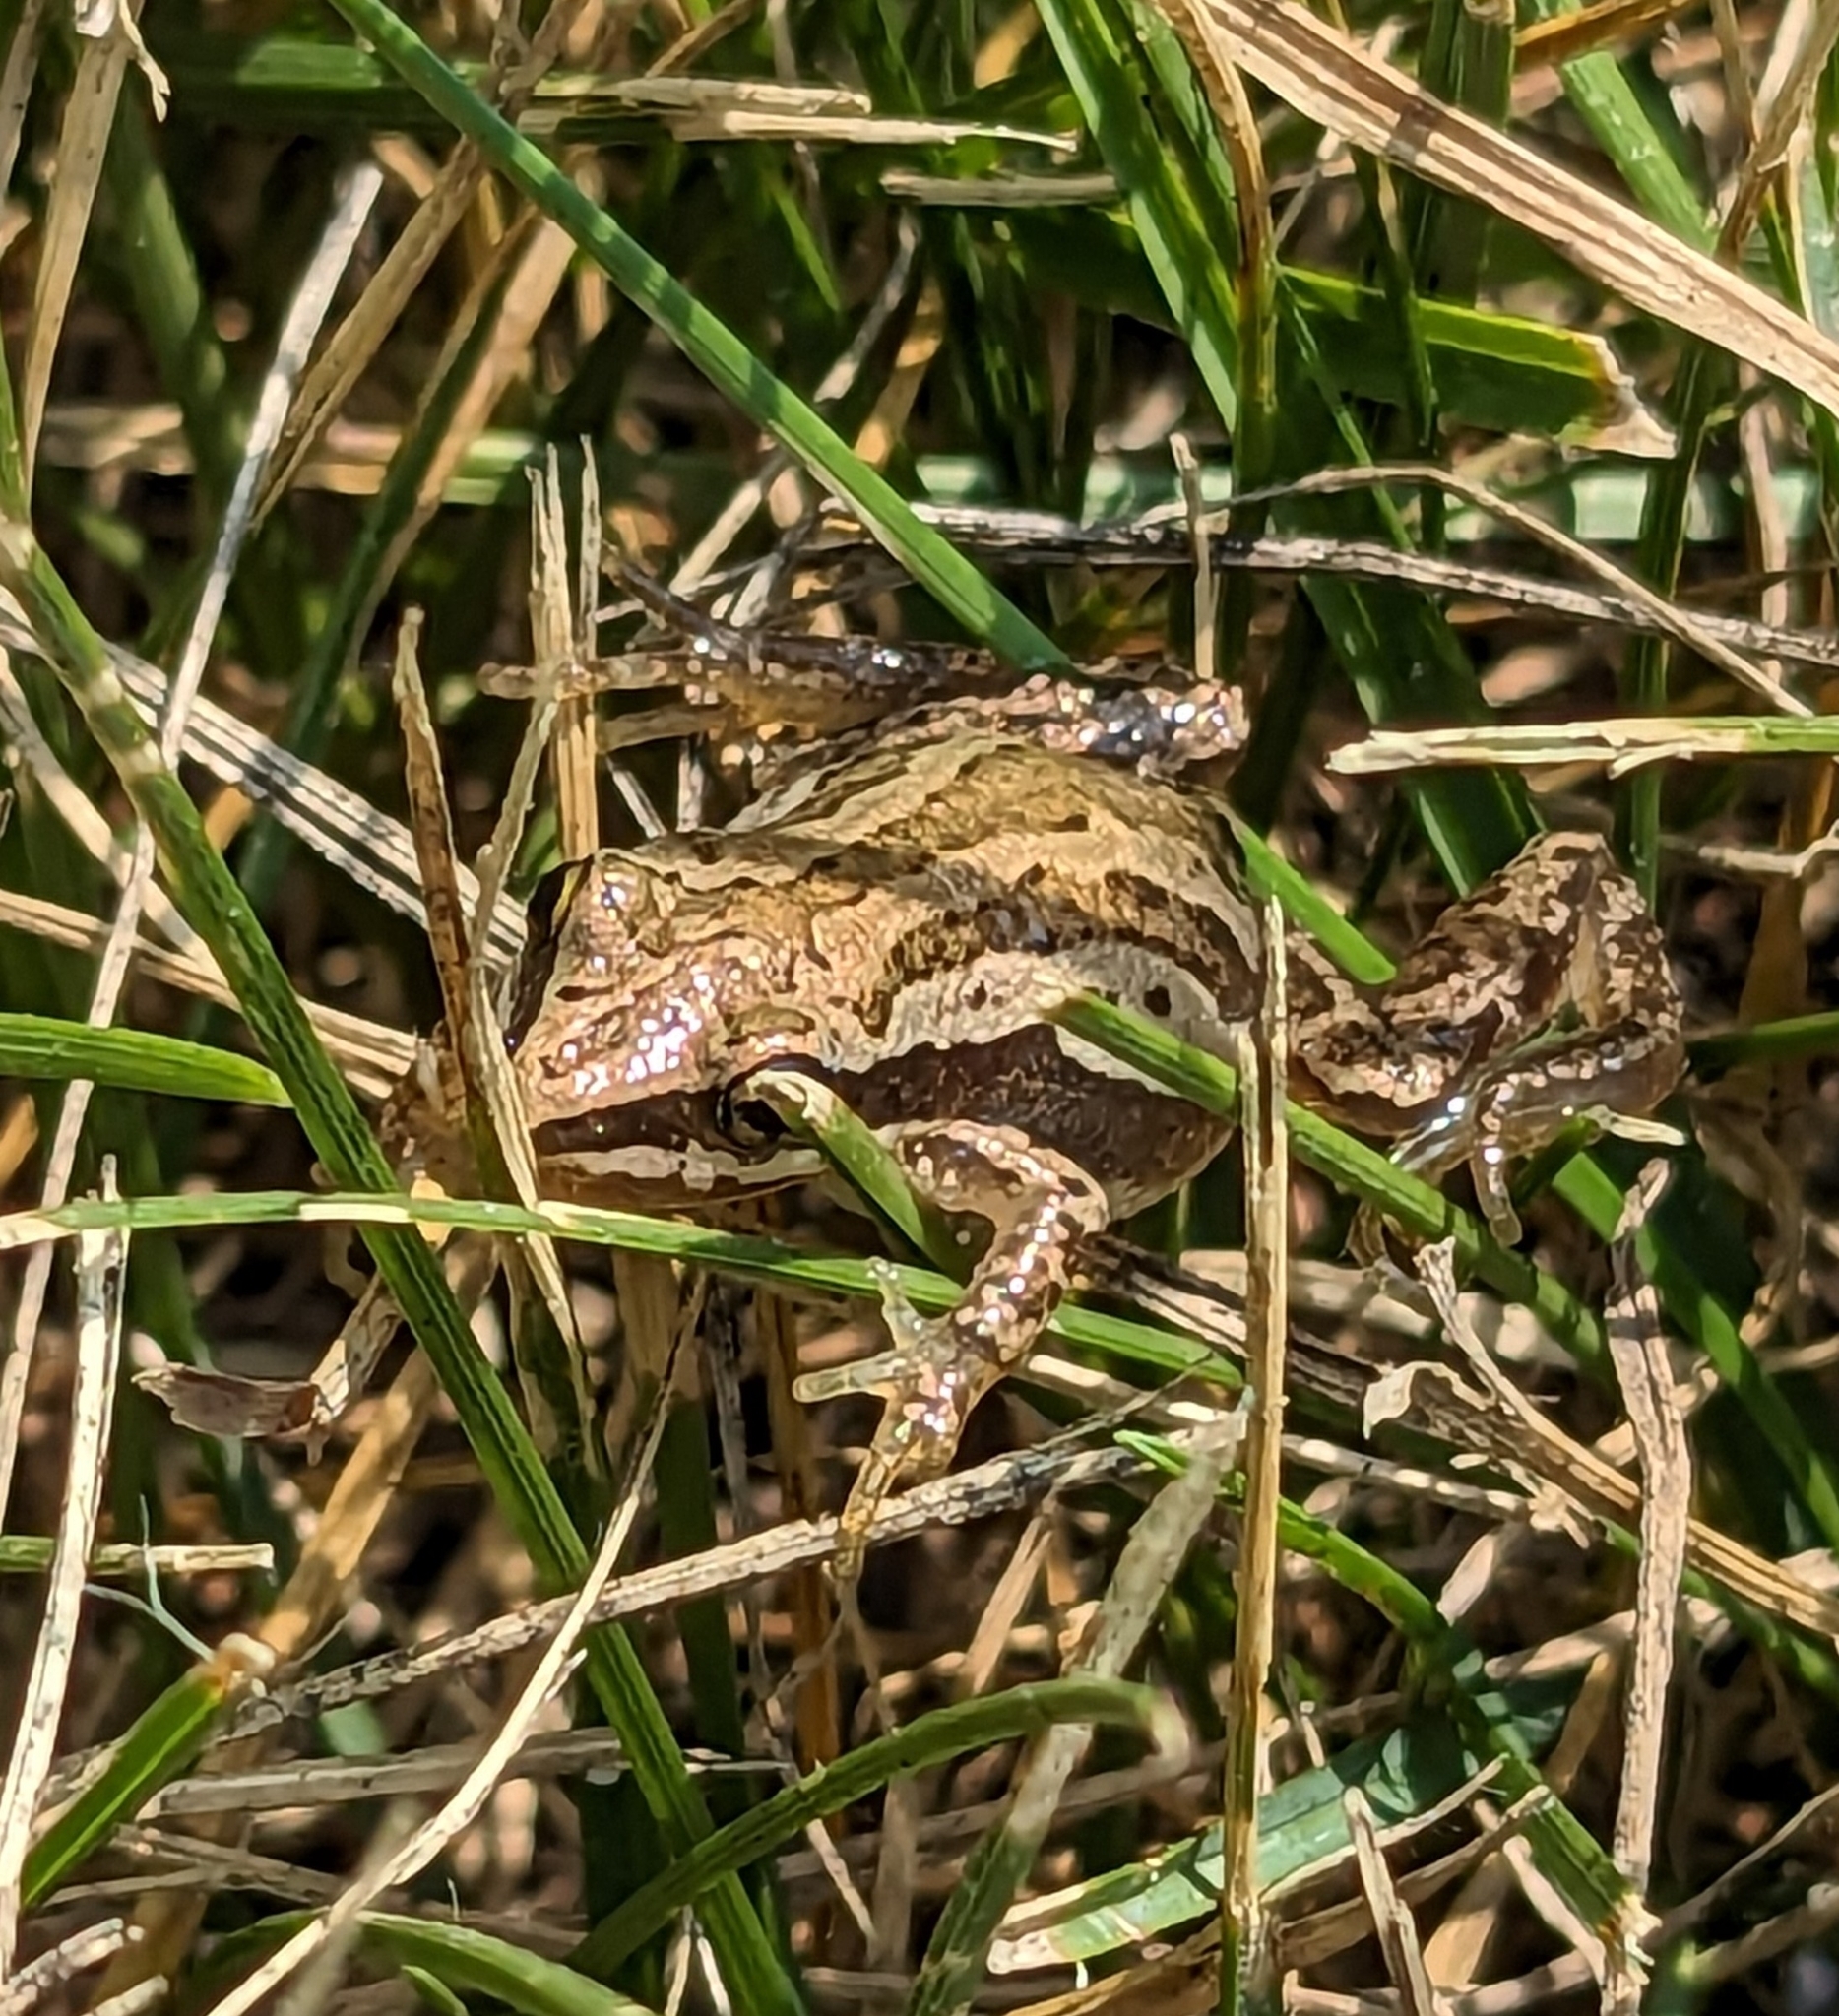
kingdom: Animalia
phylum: Chordata
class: Amphibia
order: Anura
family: Hylidae
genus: Pseudacris
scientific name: Pseudacris maculata
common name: Boreal chorus frog
